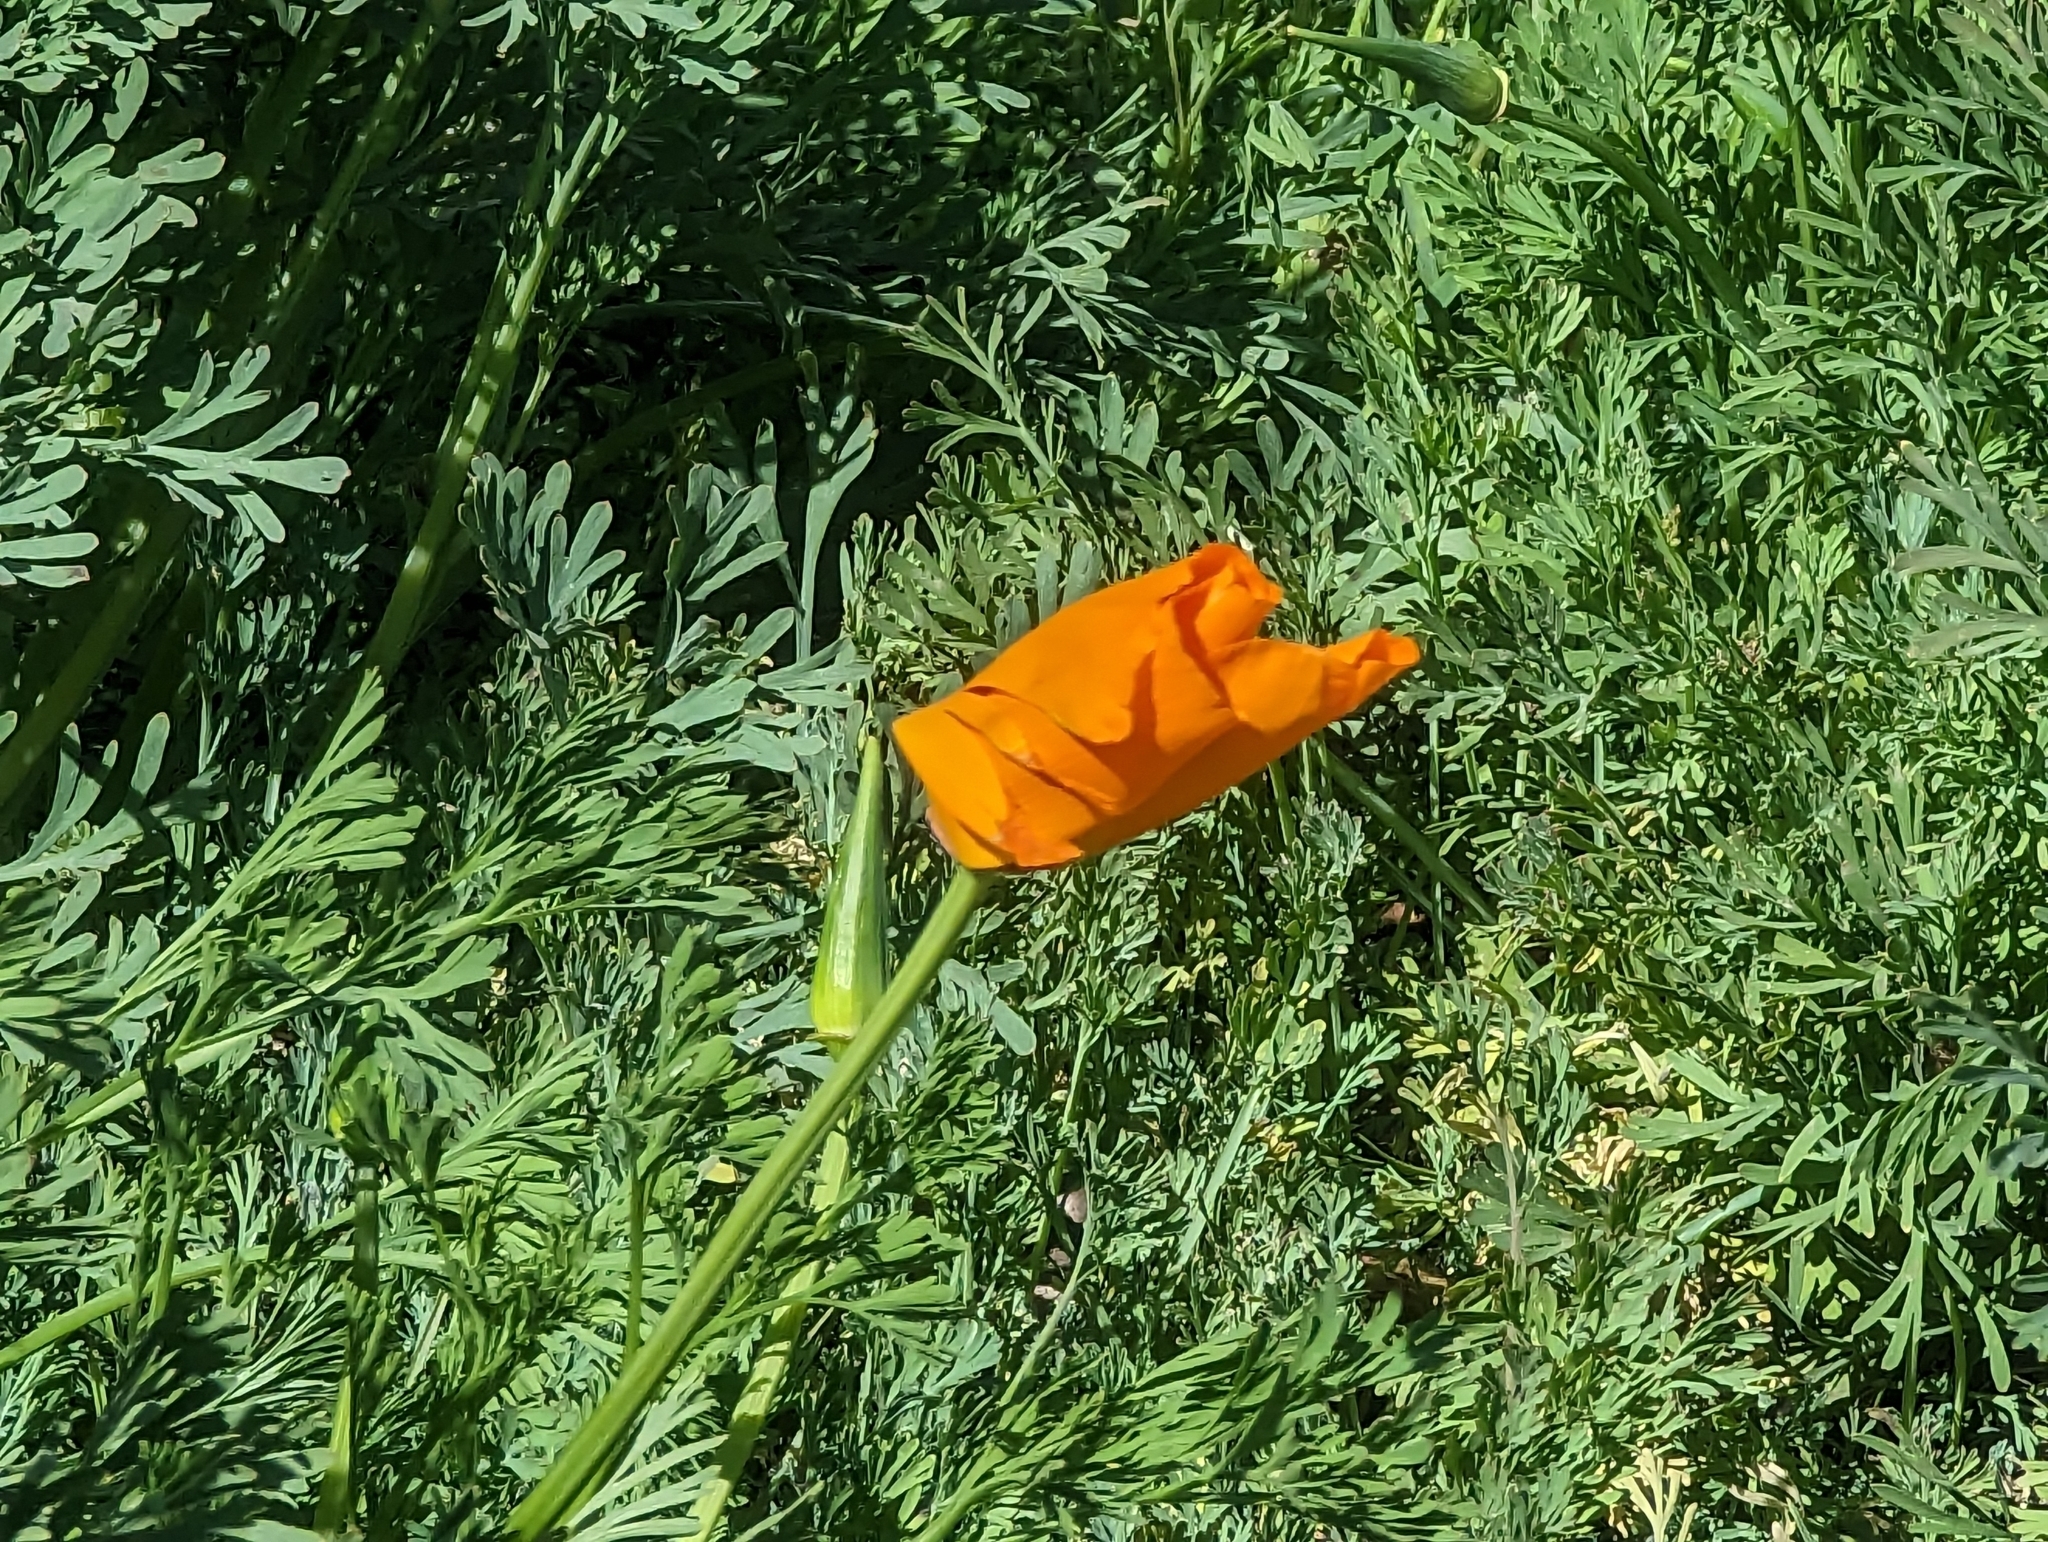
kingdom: Plantae
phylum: Tracheophyta
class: Magnoliopsida
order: Ranunculales
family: Papaveraceae
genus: Eschscholzia
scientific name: Eschscholzia californica
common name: California poppy
